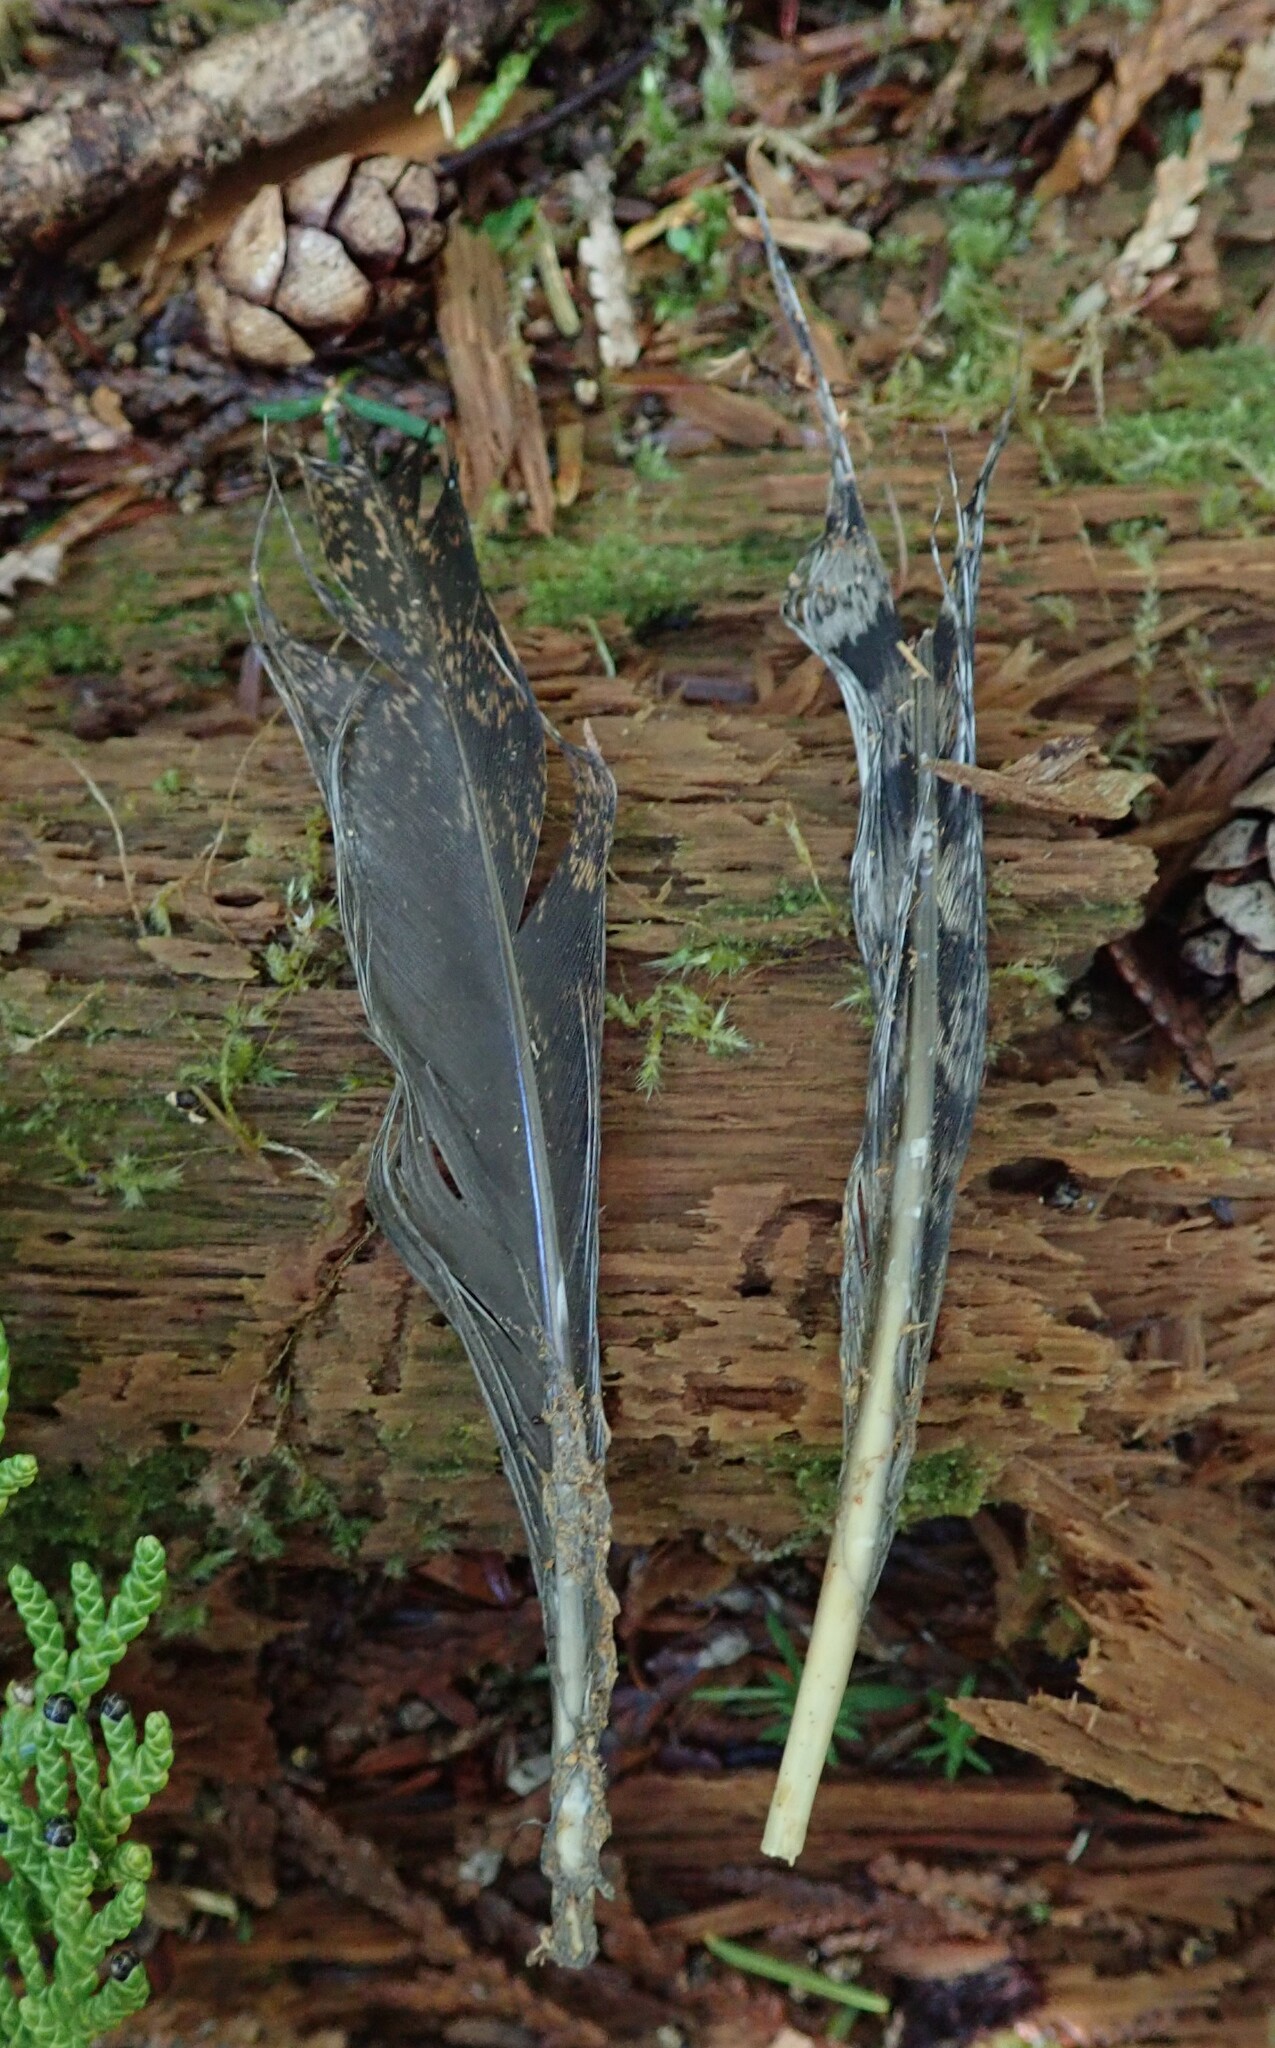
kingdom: Animalia
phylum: Chordata
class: Aves
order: Galliformes
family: Phasianidae
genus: Bonasa
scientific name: Bonasa umbellus
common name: Ruffed grouse
